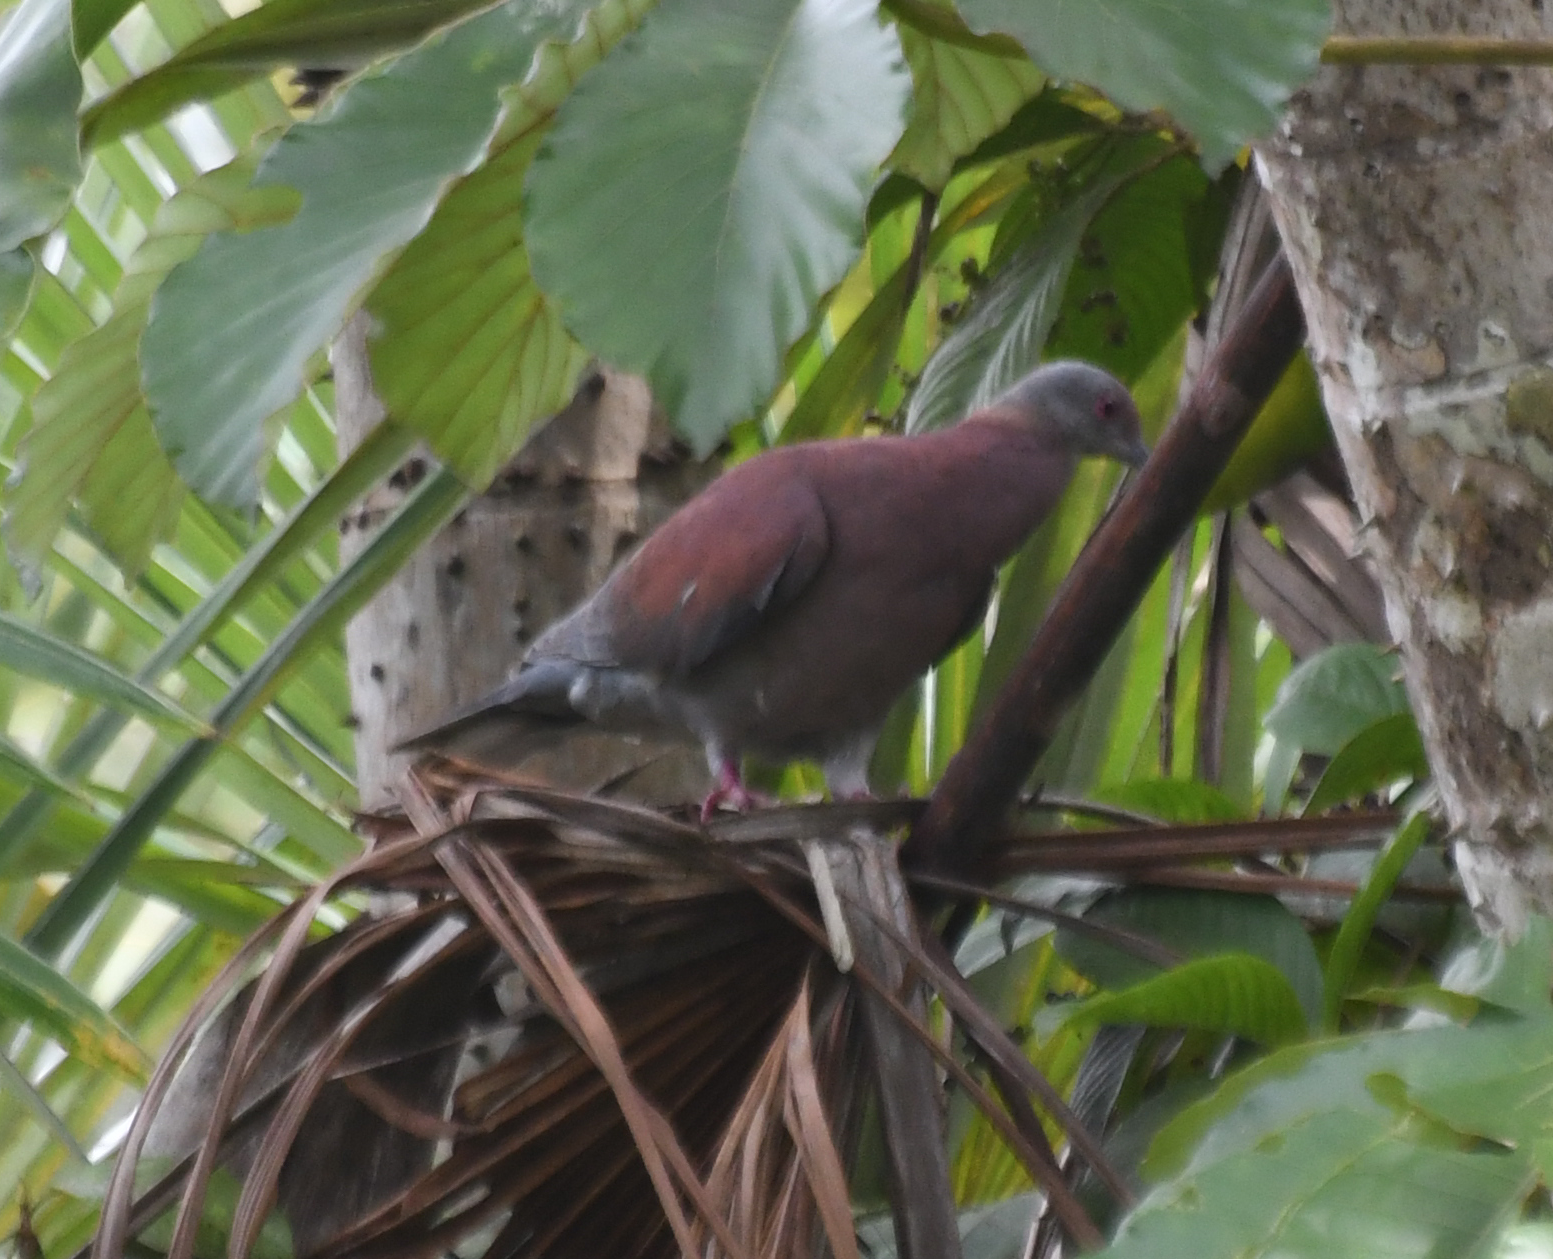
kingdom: Animalia
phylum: Chordata
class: Aves
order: Columbiformes
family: Columbidae
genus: Patagioenas
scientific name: Patagioenas cayennensis
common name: Pale-vented pigeon
